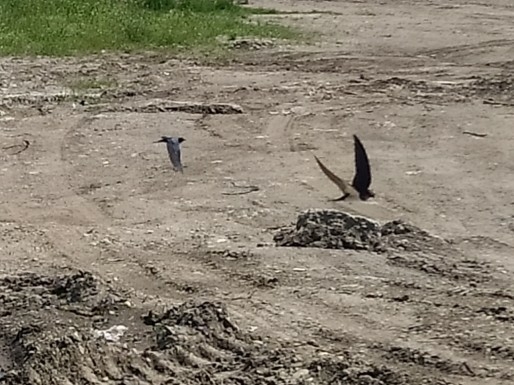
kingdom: Animalia
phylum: Chordata
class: Aves
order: Passeriformes
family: Hirundinidae
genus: Hirundo
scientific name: Hirundo rustica
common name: Barn swallow
